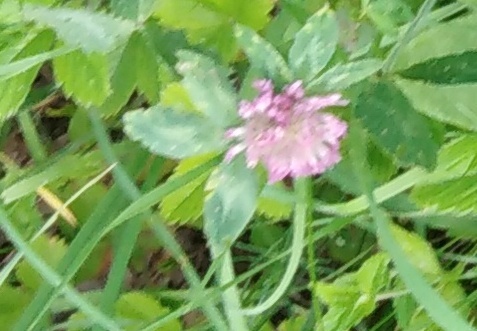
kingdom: Plantae
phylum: Tracheophyta
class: Magnoliopsida
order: Fabales
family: Fabaceae
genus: Trifolium
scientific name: Trifolium pratense
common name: Red clover
